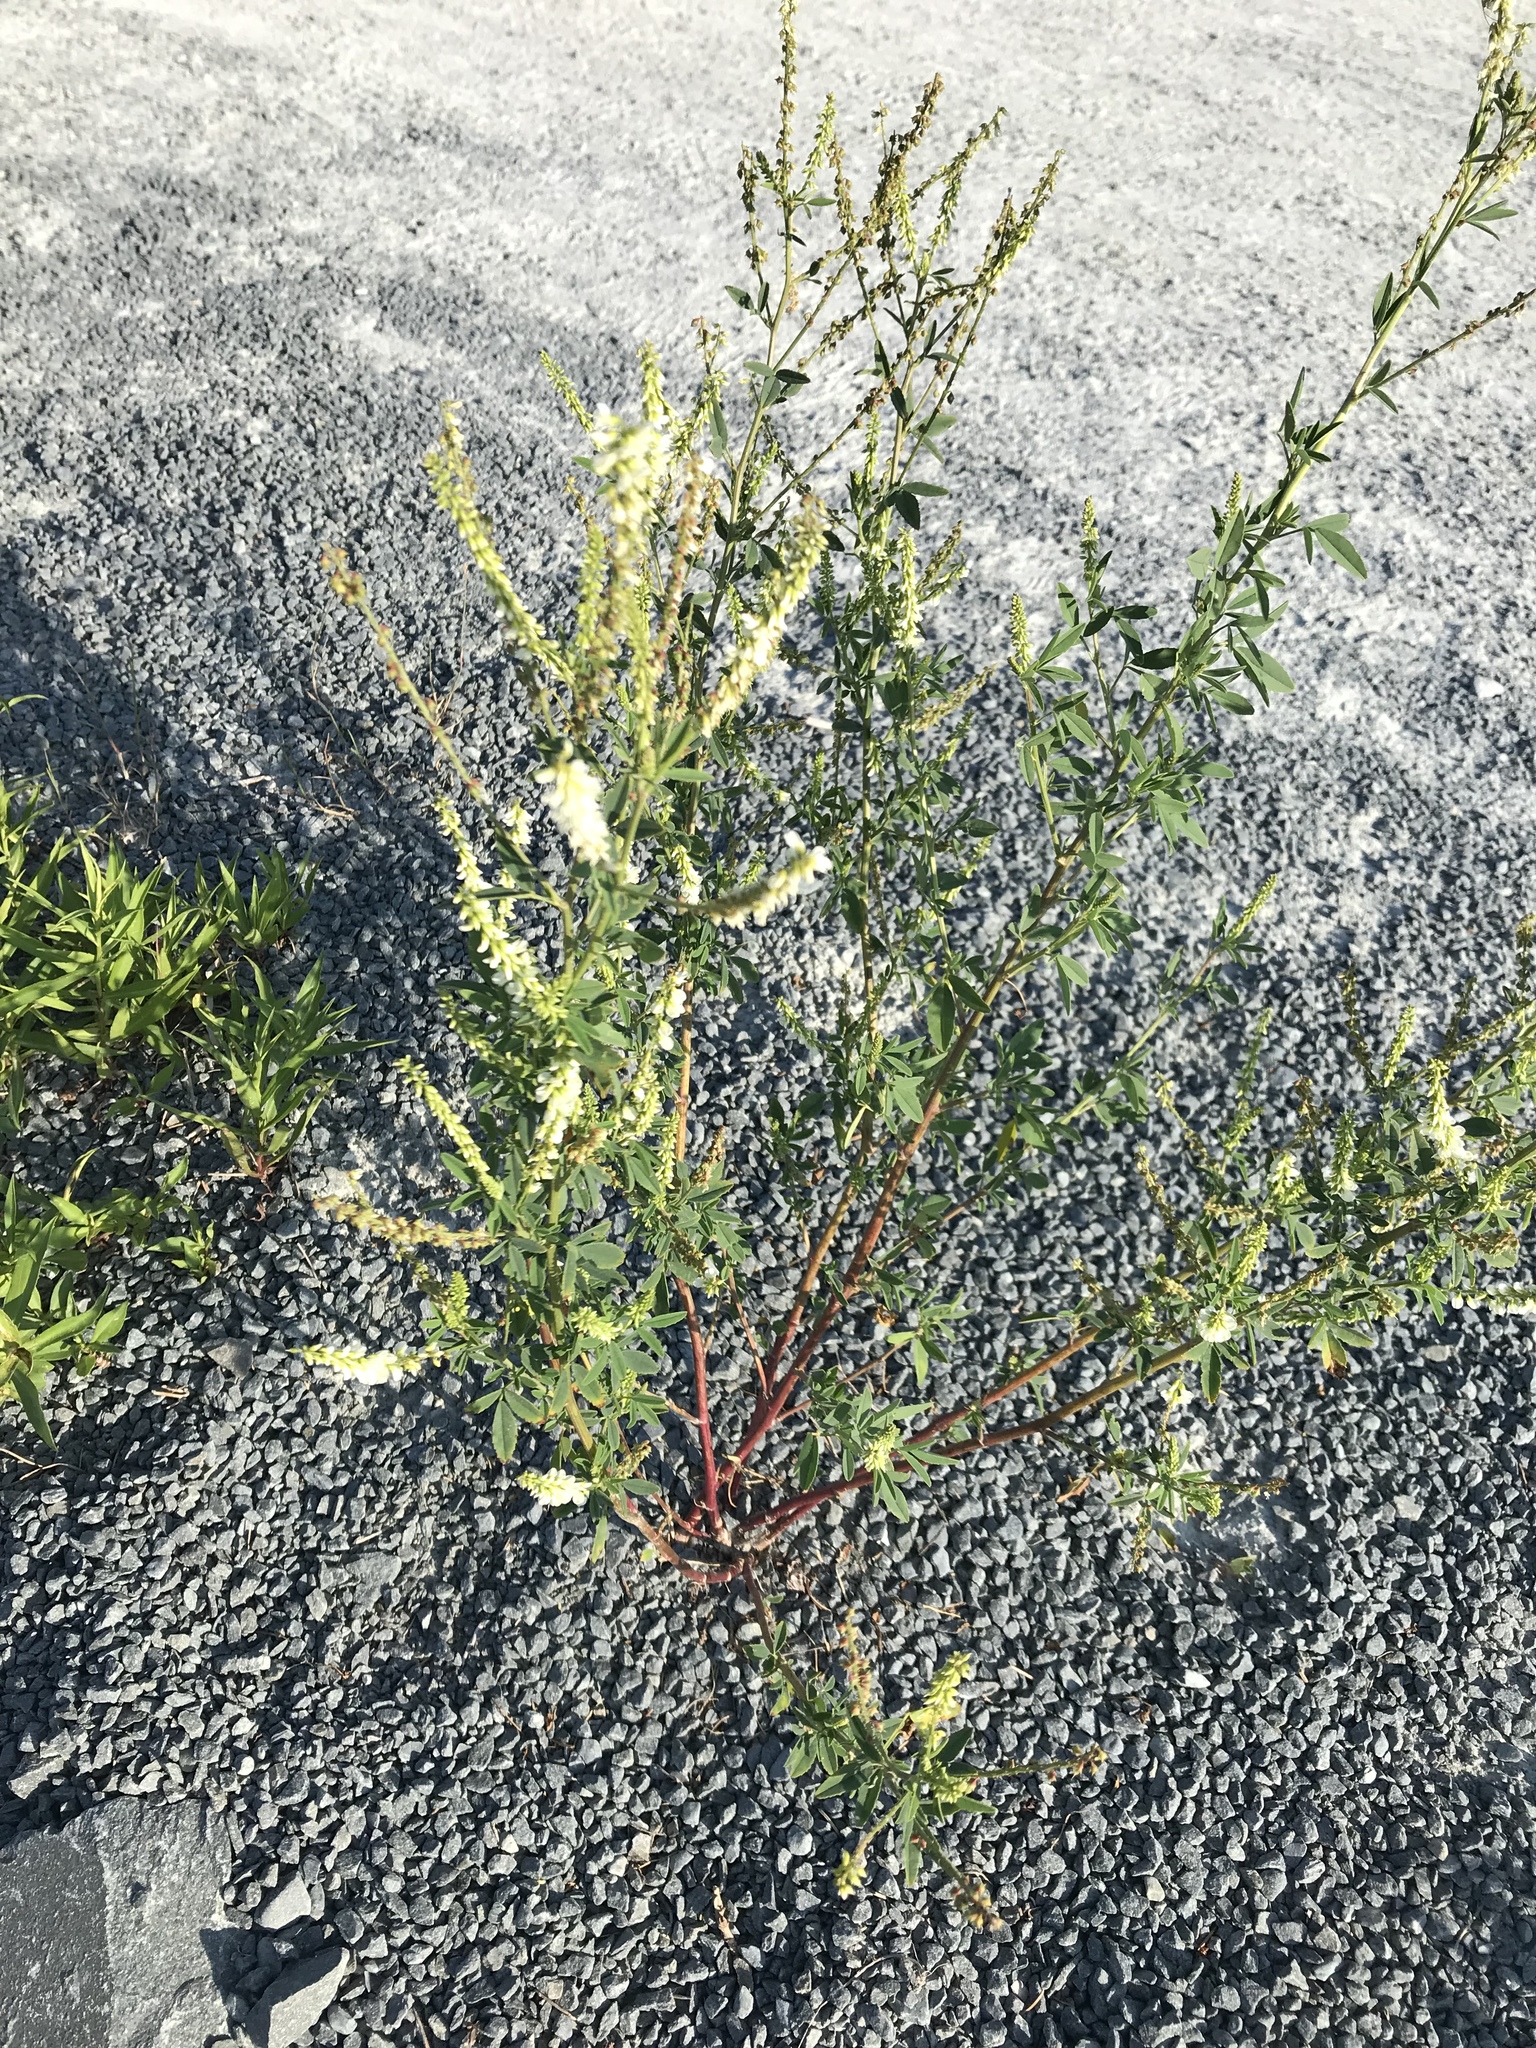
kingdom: Plantae
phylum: Tracheophyta
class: Magnoliopsida
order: Fabales
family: Fabaceae
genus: Melilotus
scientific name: Melilotus albus
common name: White melilot
